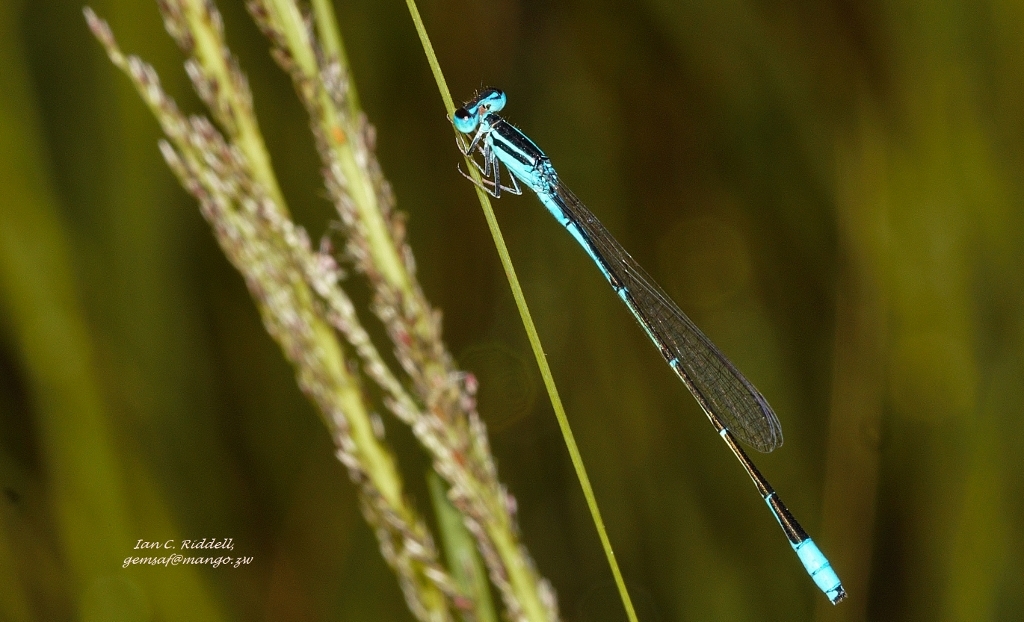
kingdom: Animalia
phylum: Arthropoda
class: Insecta
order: Odonata
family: Coenagrionidae
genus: Africallagma
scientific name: Africallagma glaucum
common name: Swamp bluet
